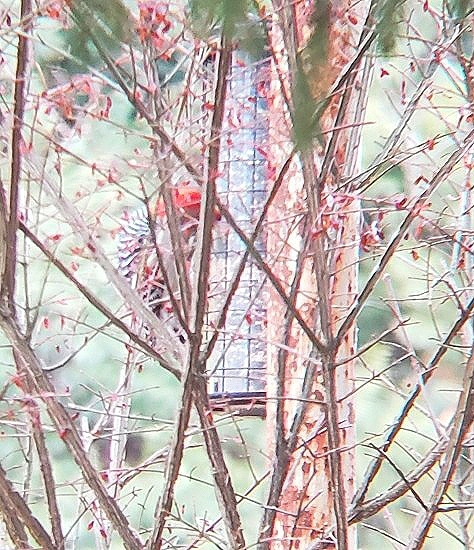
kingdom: Animalia
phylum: Chordata
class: Aves
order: Piciformes
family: Picidae
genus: Melanerpes
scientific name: Melanerpes carolinus
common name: Red-bellied woodpecker
